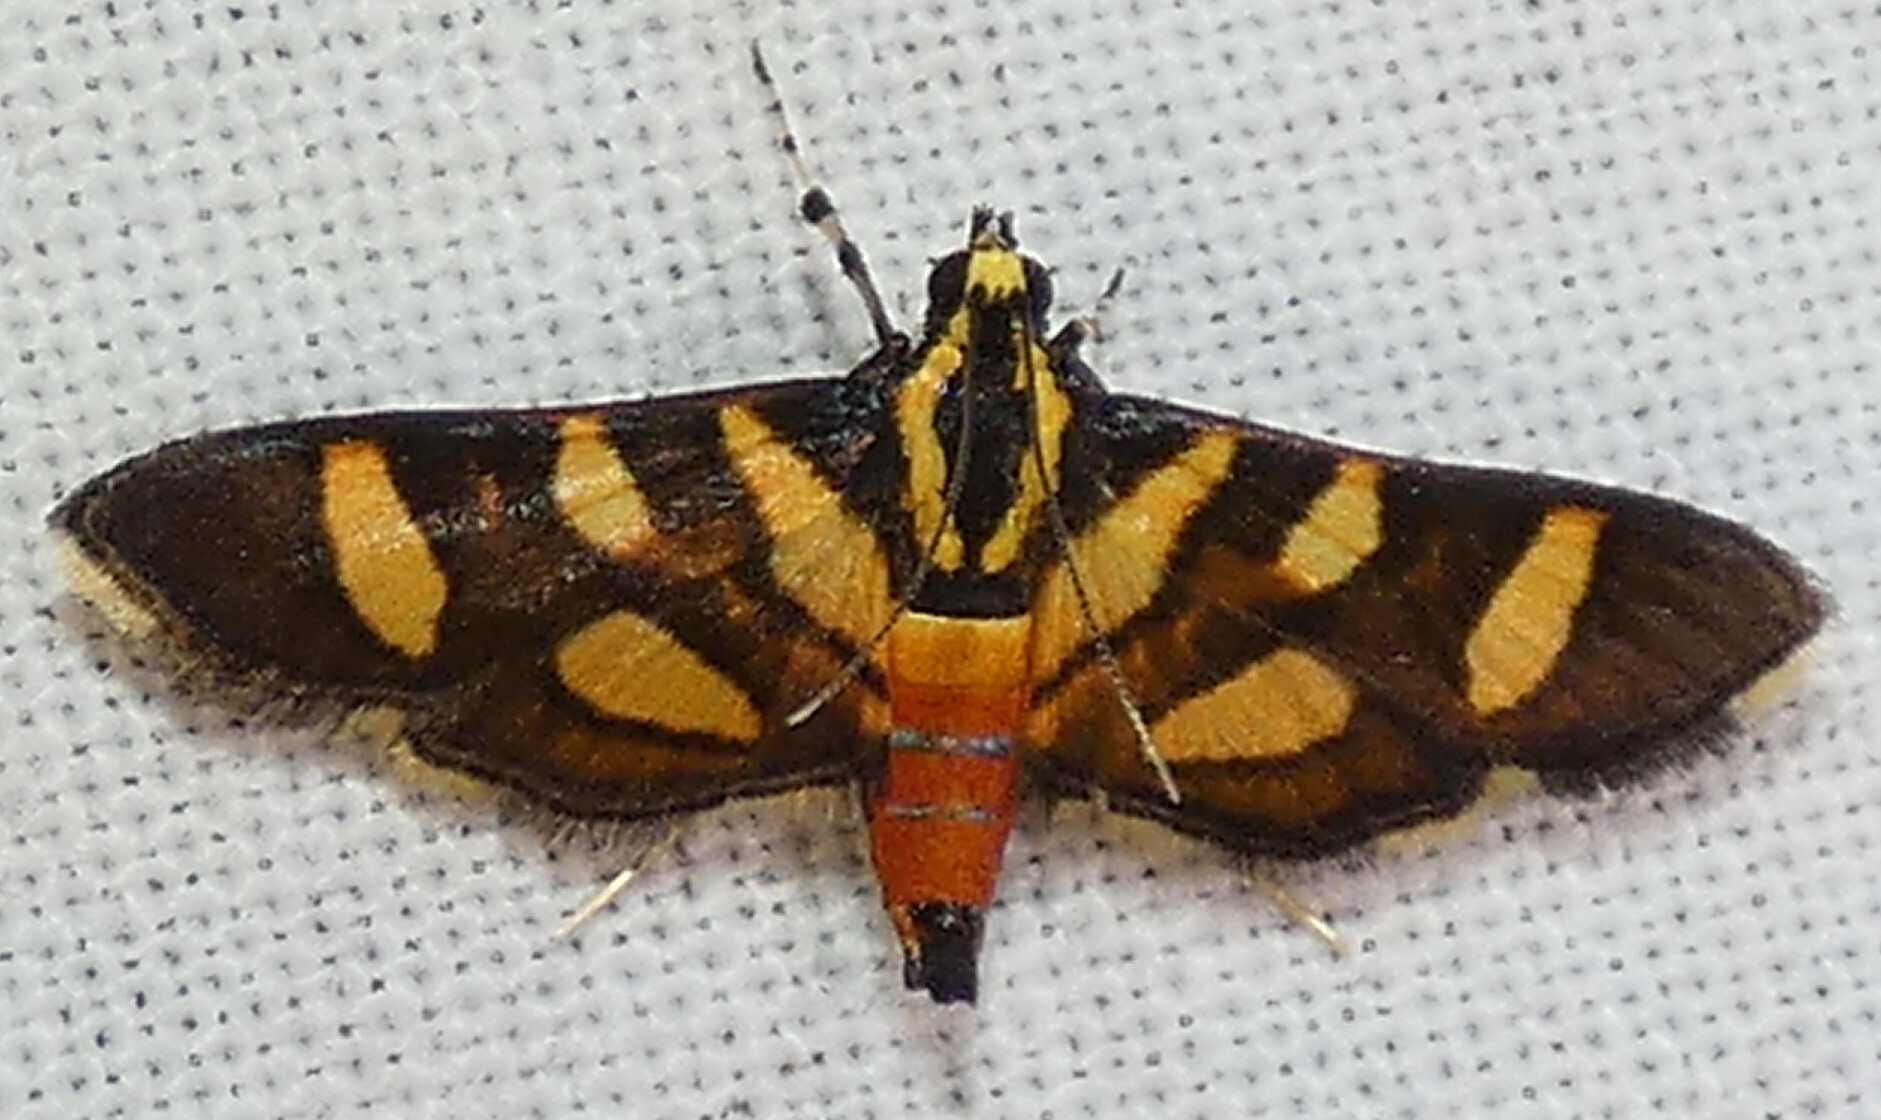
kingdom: Animalia
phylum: Arthropoda
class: Insecta
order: Lepidoptera
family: Crambidae
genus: Syngamia
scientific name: Syngamia florella
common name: Orange-spotted flower moth
